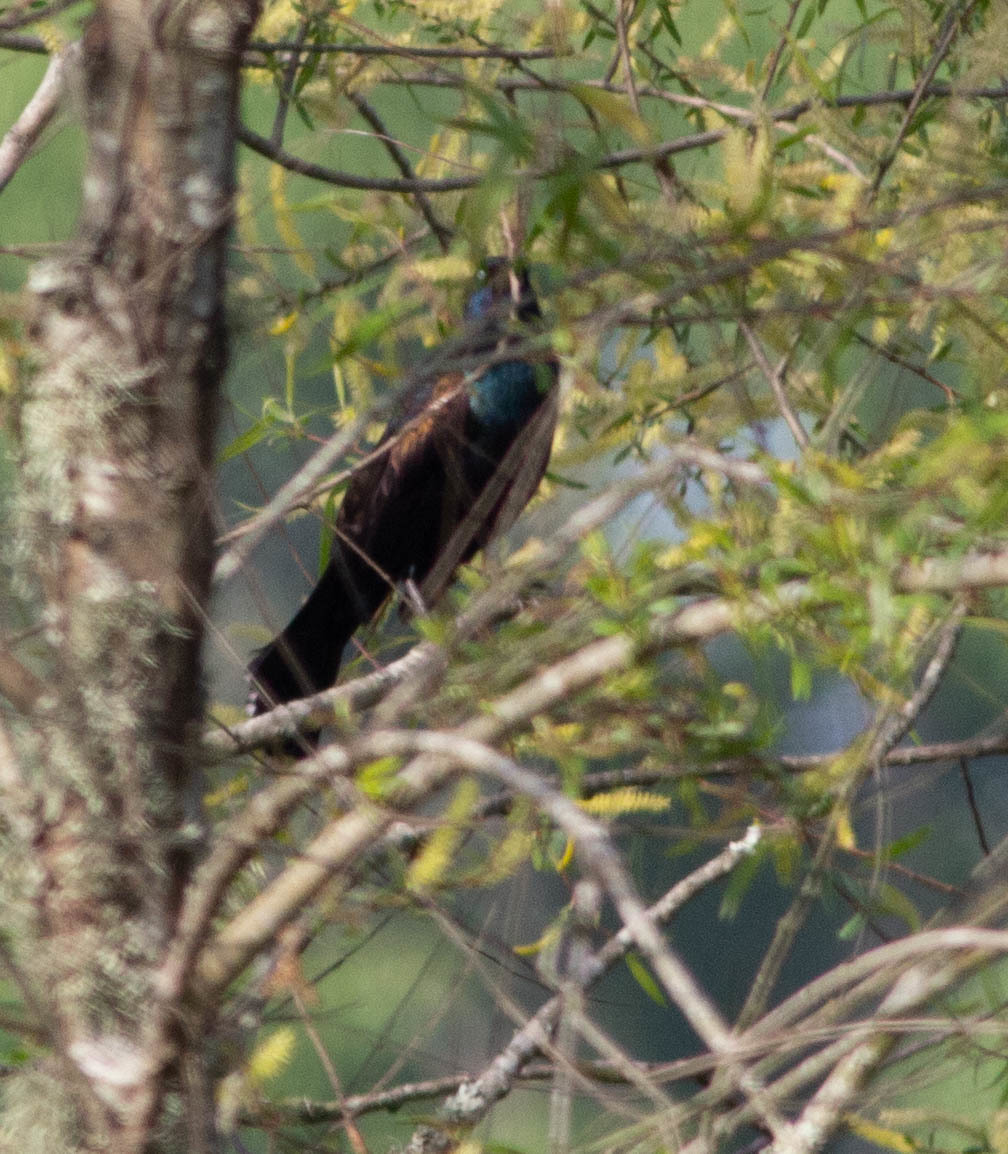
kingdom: Animalia
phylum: Chordata
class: Aves
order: Passeriformes
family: Icteridae
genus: Quiscalus
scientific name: Quiscalus quiscula
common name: Common grackle
